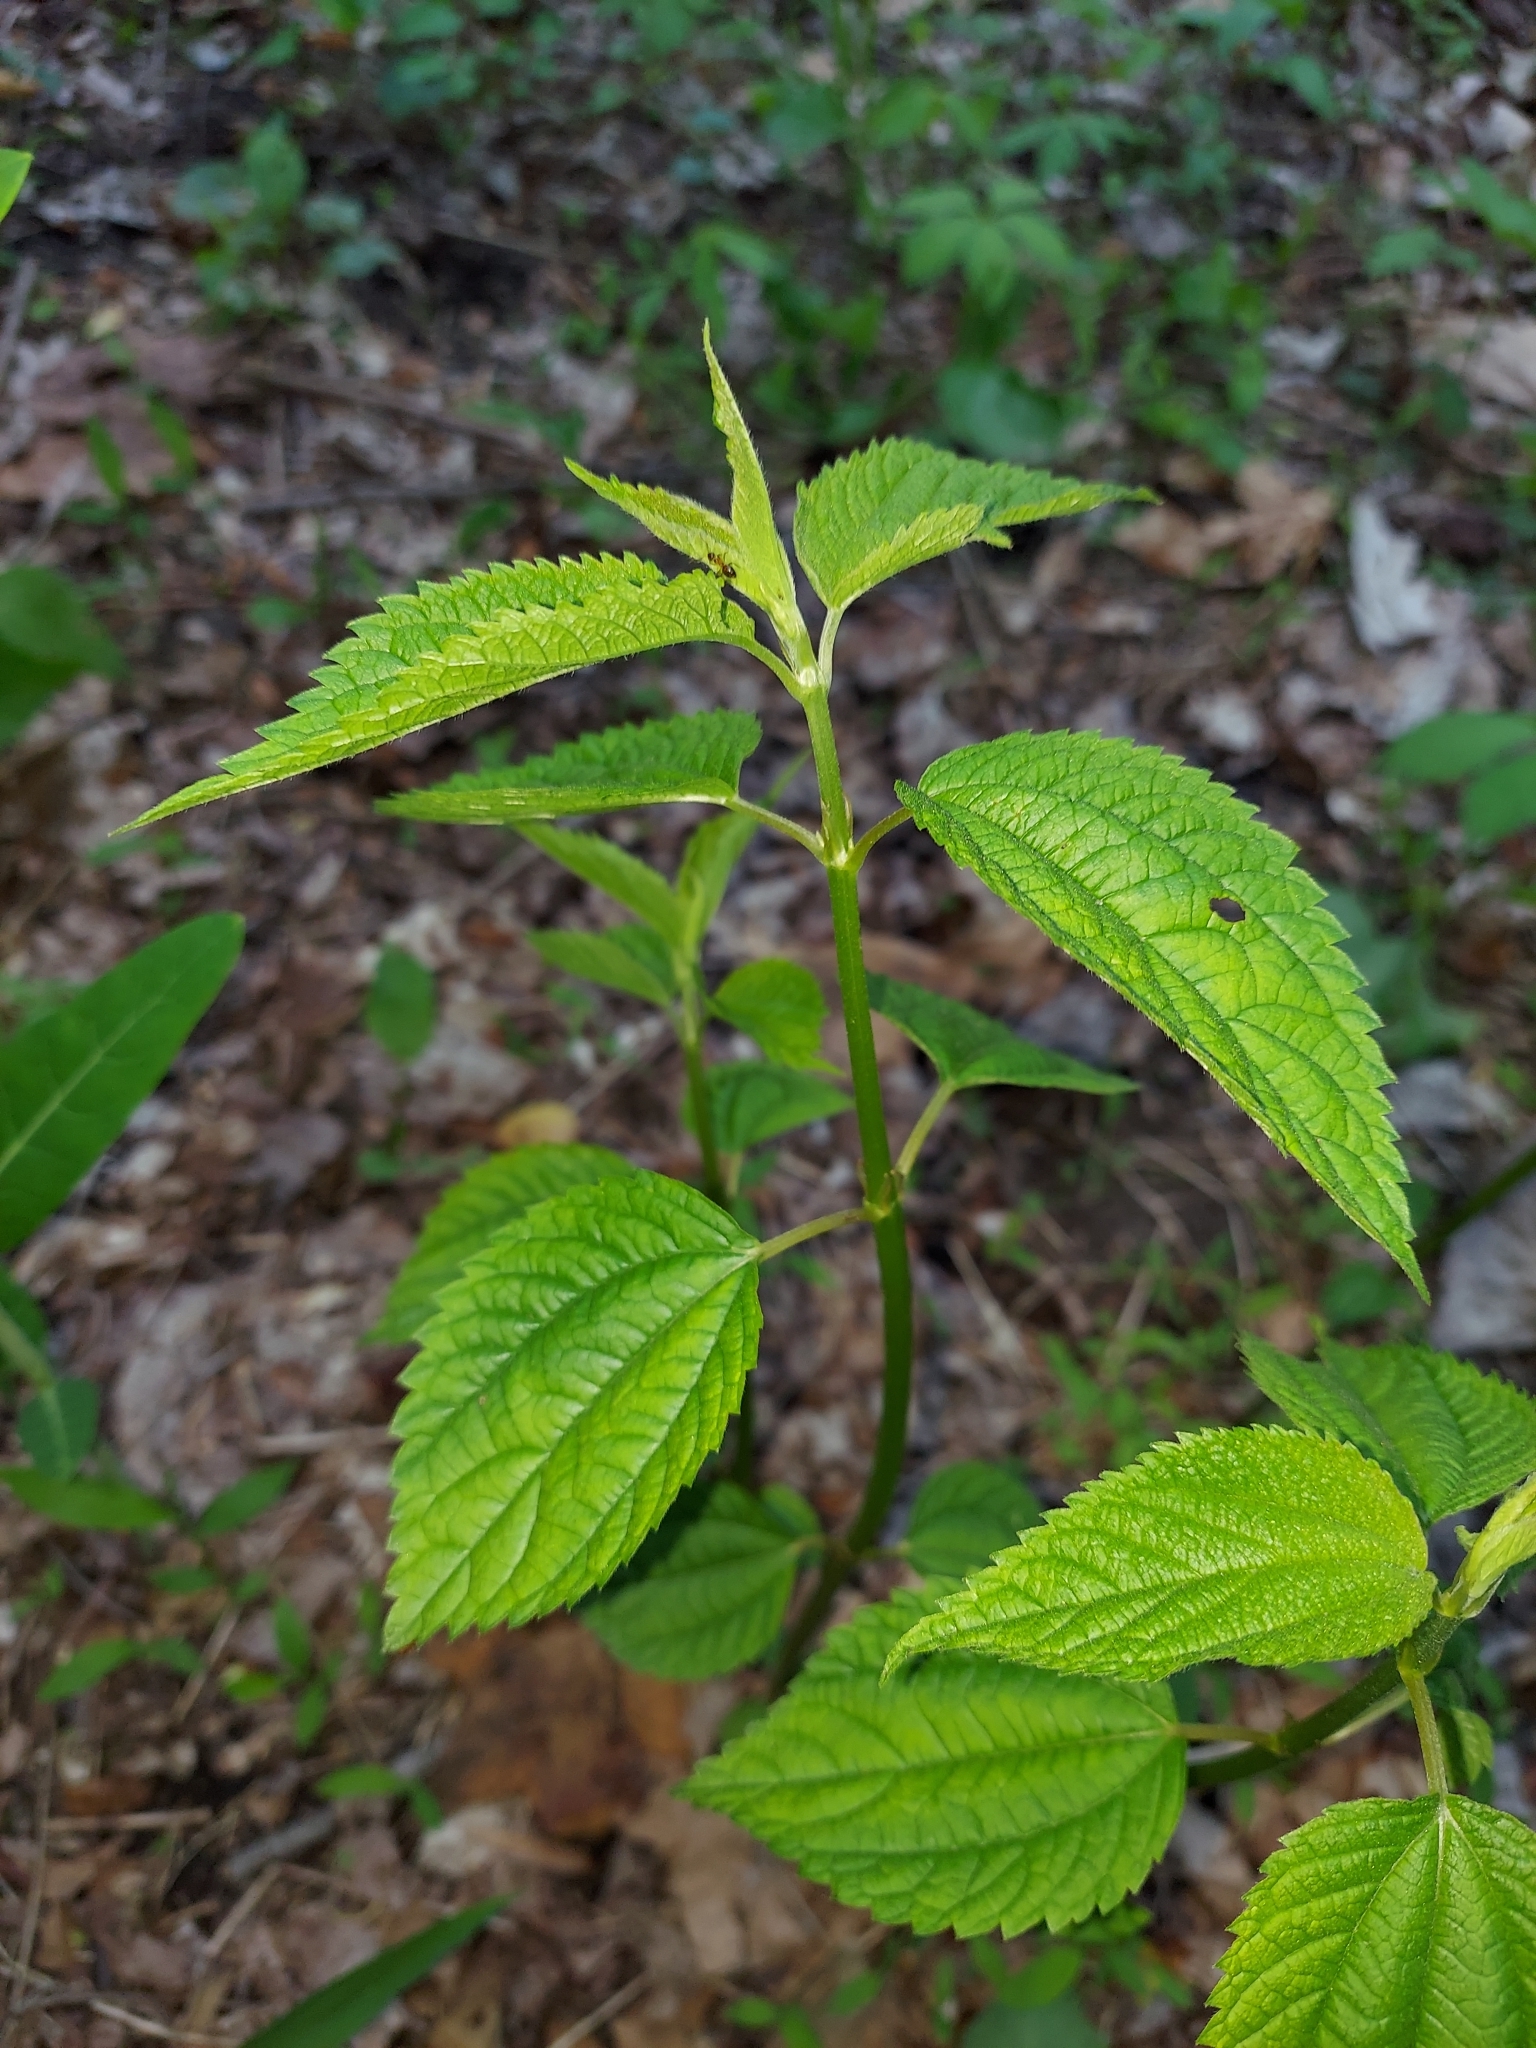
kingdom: Plantae
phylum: Tracheophyta
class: Magnoliopsida
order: Rosales
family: Urticaceae
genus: Boehmeria
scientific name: Boehmeria cylindrica
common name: Bog-hemp
